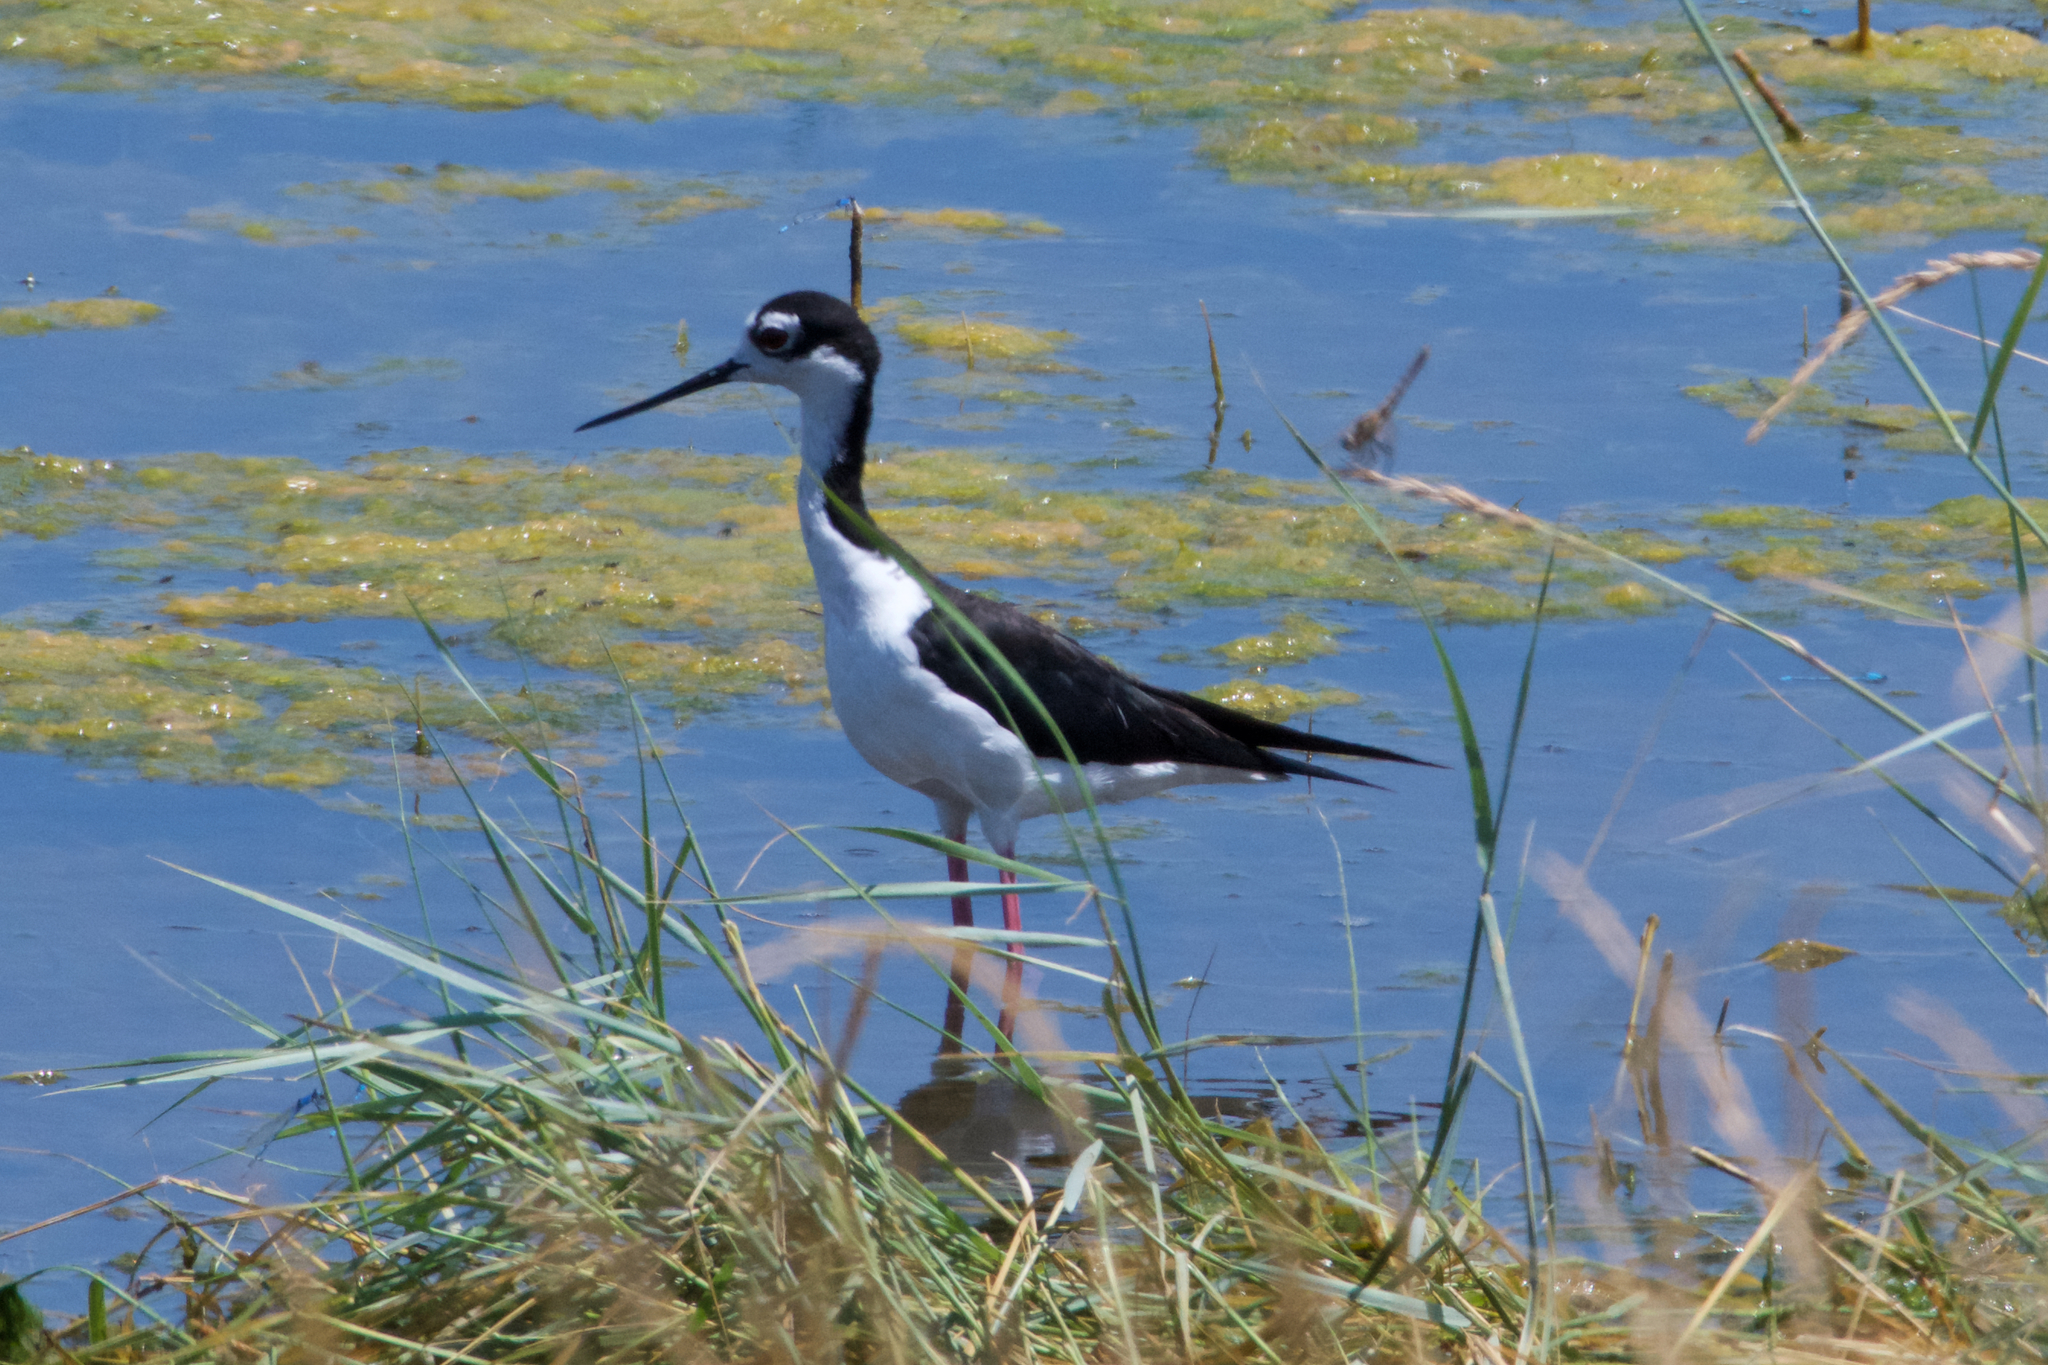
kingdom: Animalia
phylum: Chordata
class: Aves
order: Charadriiformes
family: Recurvirostridae
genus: Himantopus
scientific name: Himantopus mexicanus
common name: Black-necked stilt
